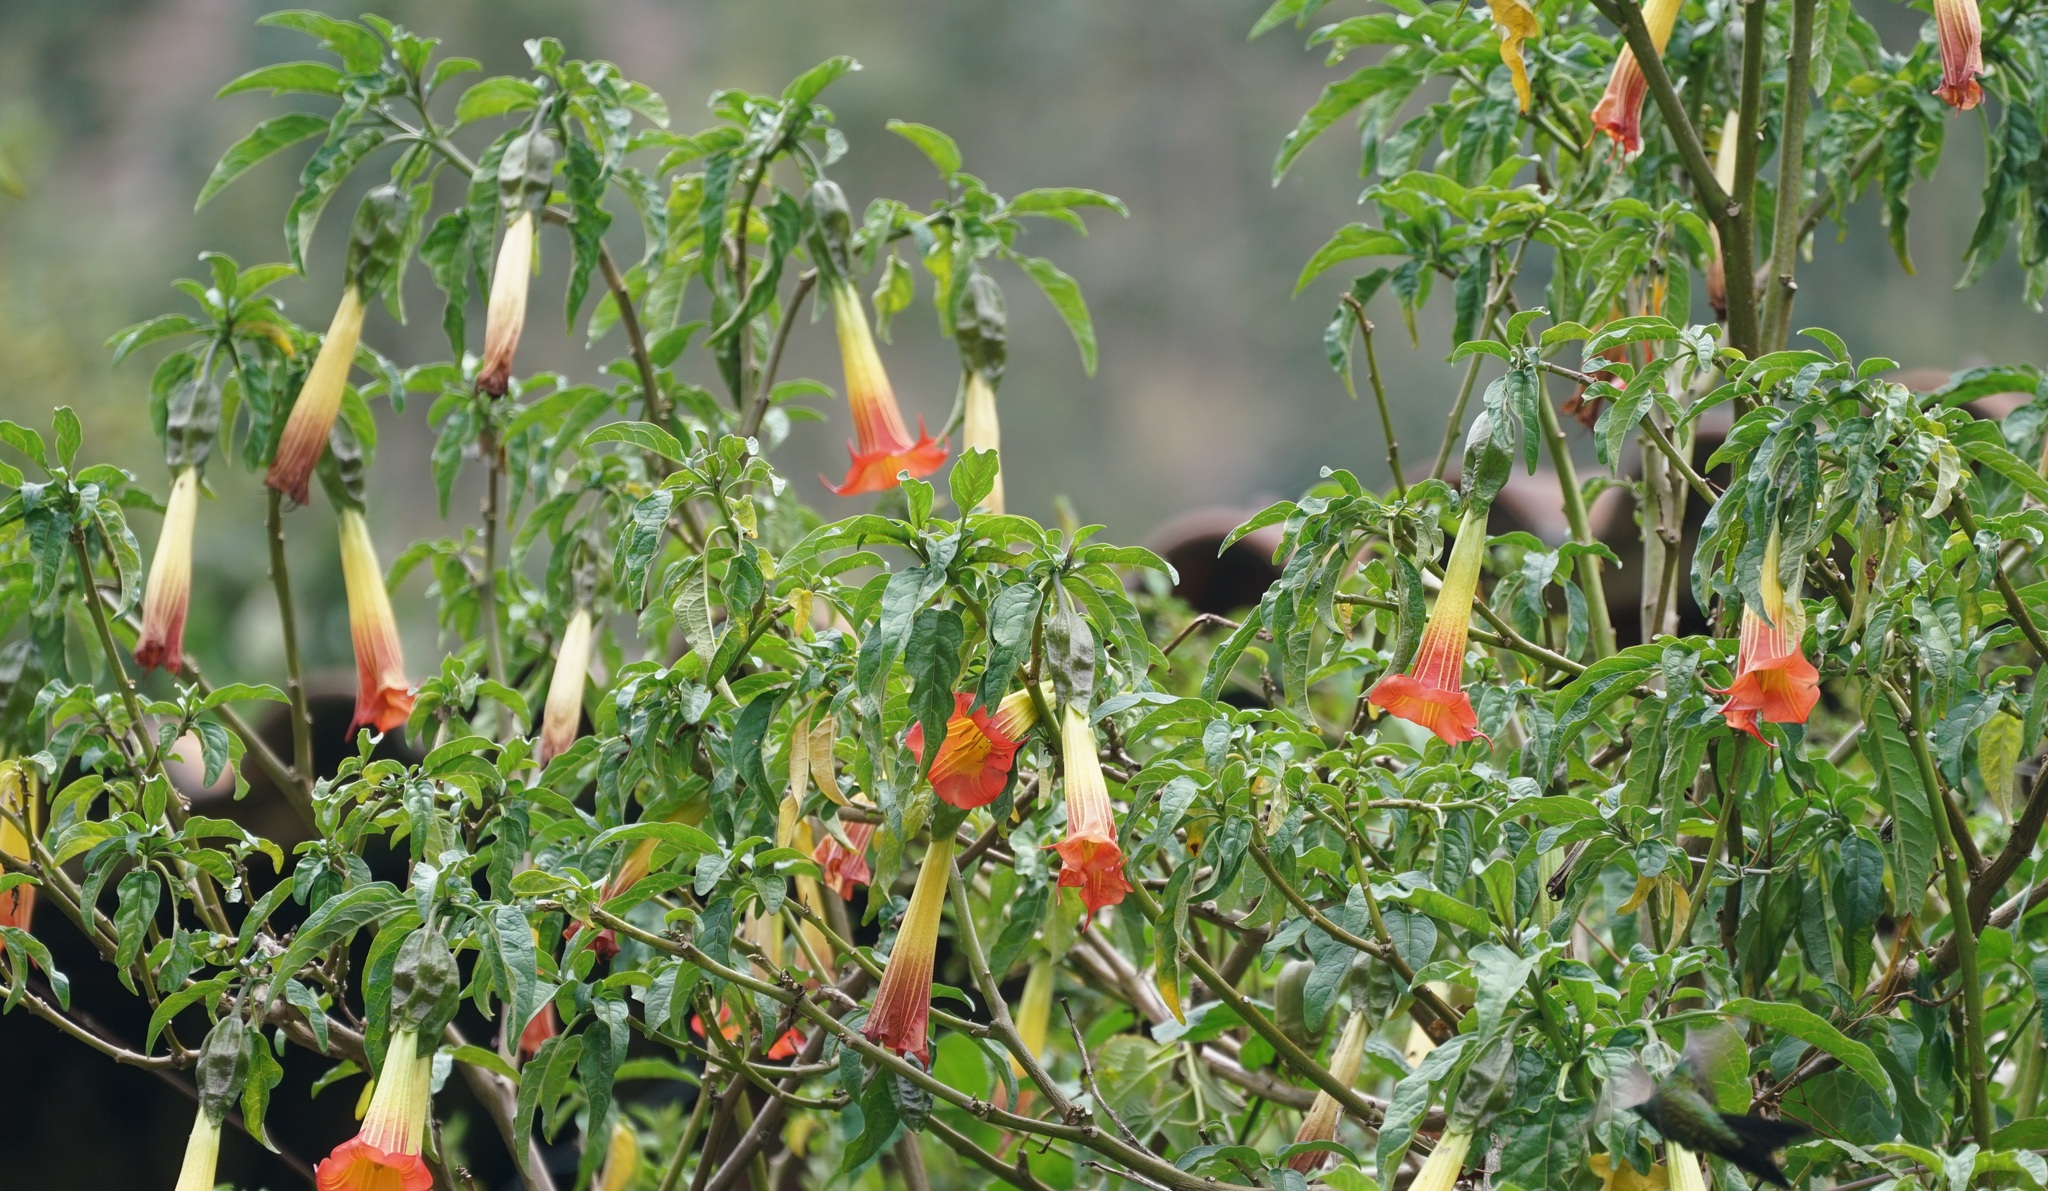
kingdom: Plantae
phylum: Tracheophyta
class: Magnoliopsida
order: Solanales
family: Solanaceae
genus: Brugmansia
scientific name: Brugmansia sanguinea
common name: Red floripontio
